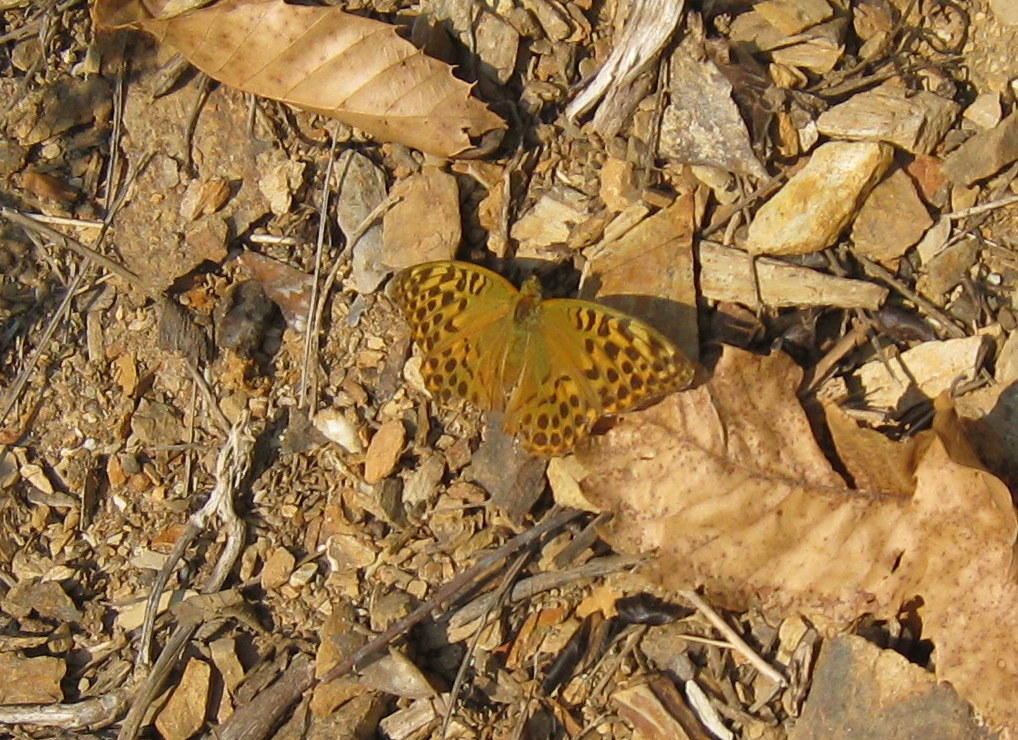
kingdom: Animalia
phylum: Arthropoda
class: Insecta
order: Lepidoptera
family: Nymphalidae
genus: Argynnis
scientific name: Argynnis paphia
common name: Silver-washed fritillary
